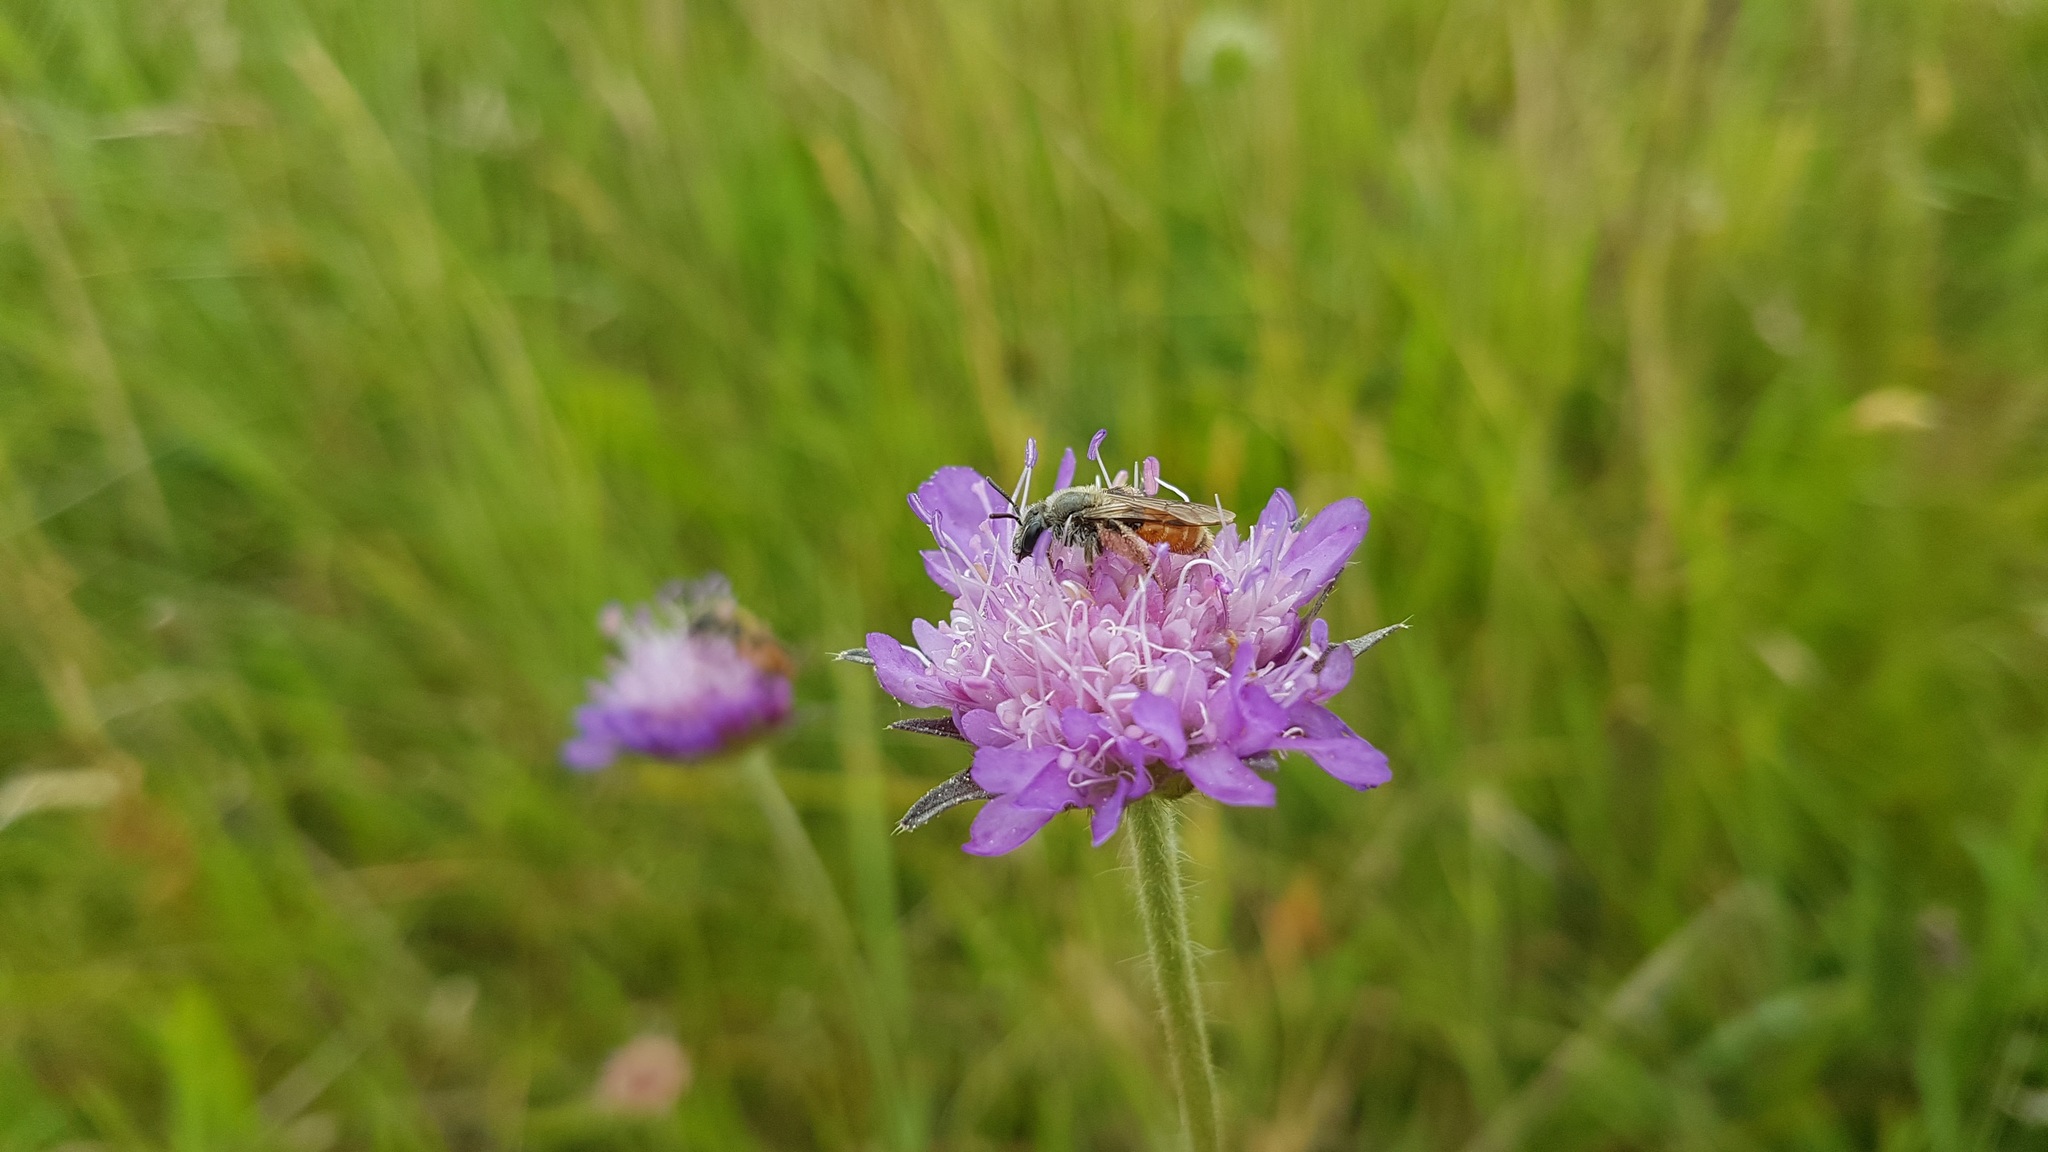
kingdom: Animalia
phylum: Arthropoda
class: Insecta
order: Hymenoptera
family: Andrenidae
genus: Andrena
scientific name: Andrena marginata
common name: Small scabious mining bee
